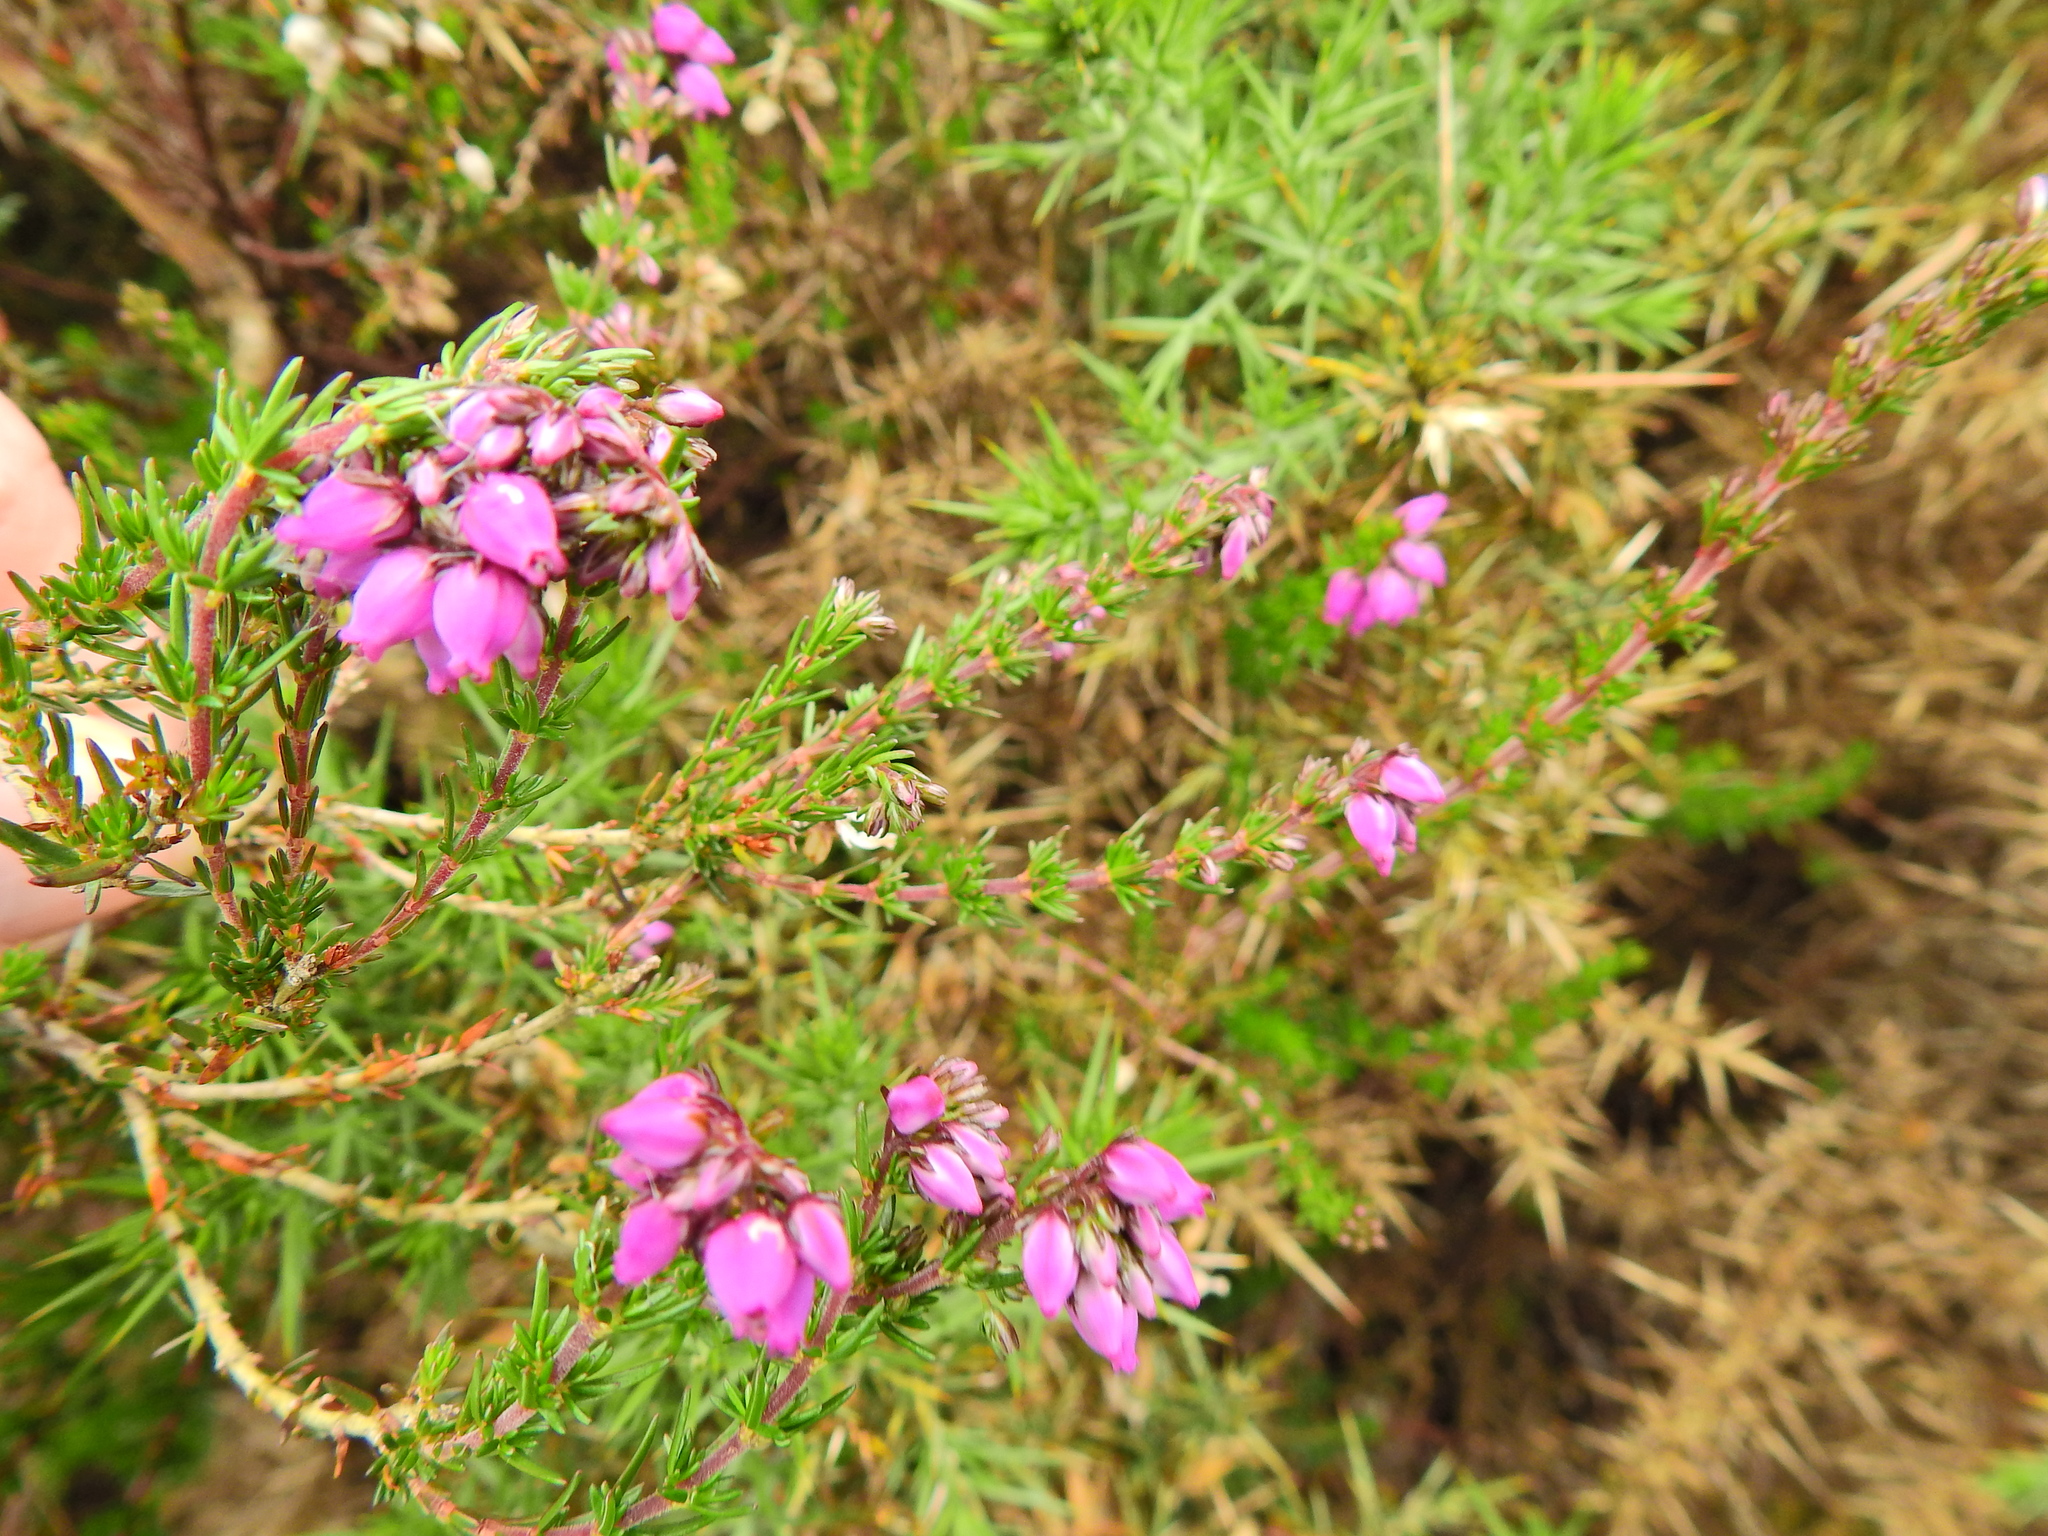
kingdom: Plantae
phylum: Tracheophyta
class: Magnoliopsida
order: Ericales
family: Ericaceae
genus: Erica
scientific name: Erica cinerea
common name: Bell heather
